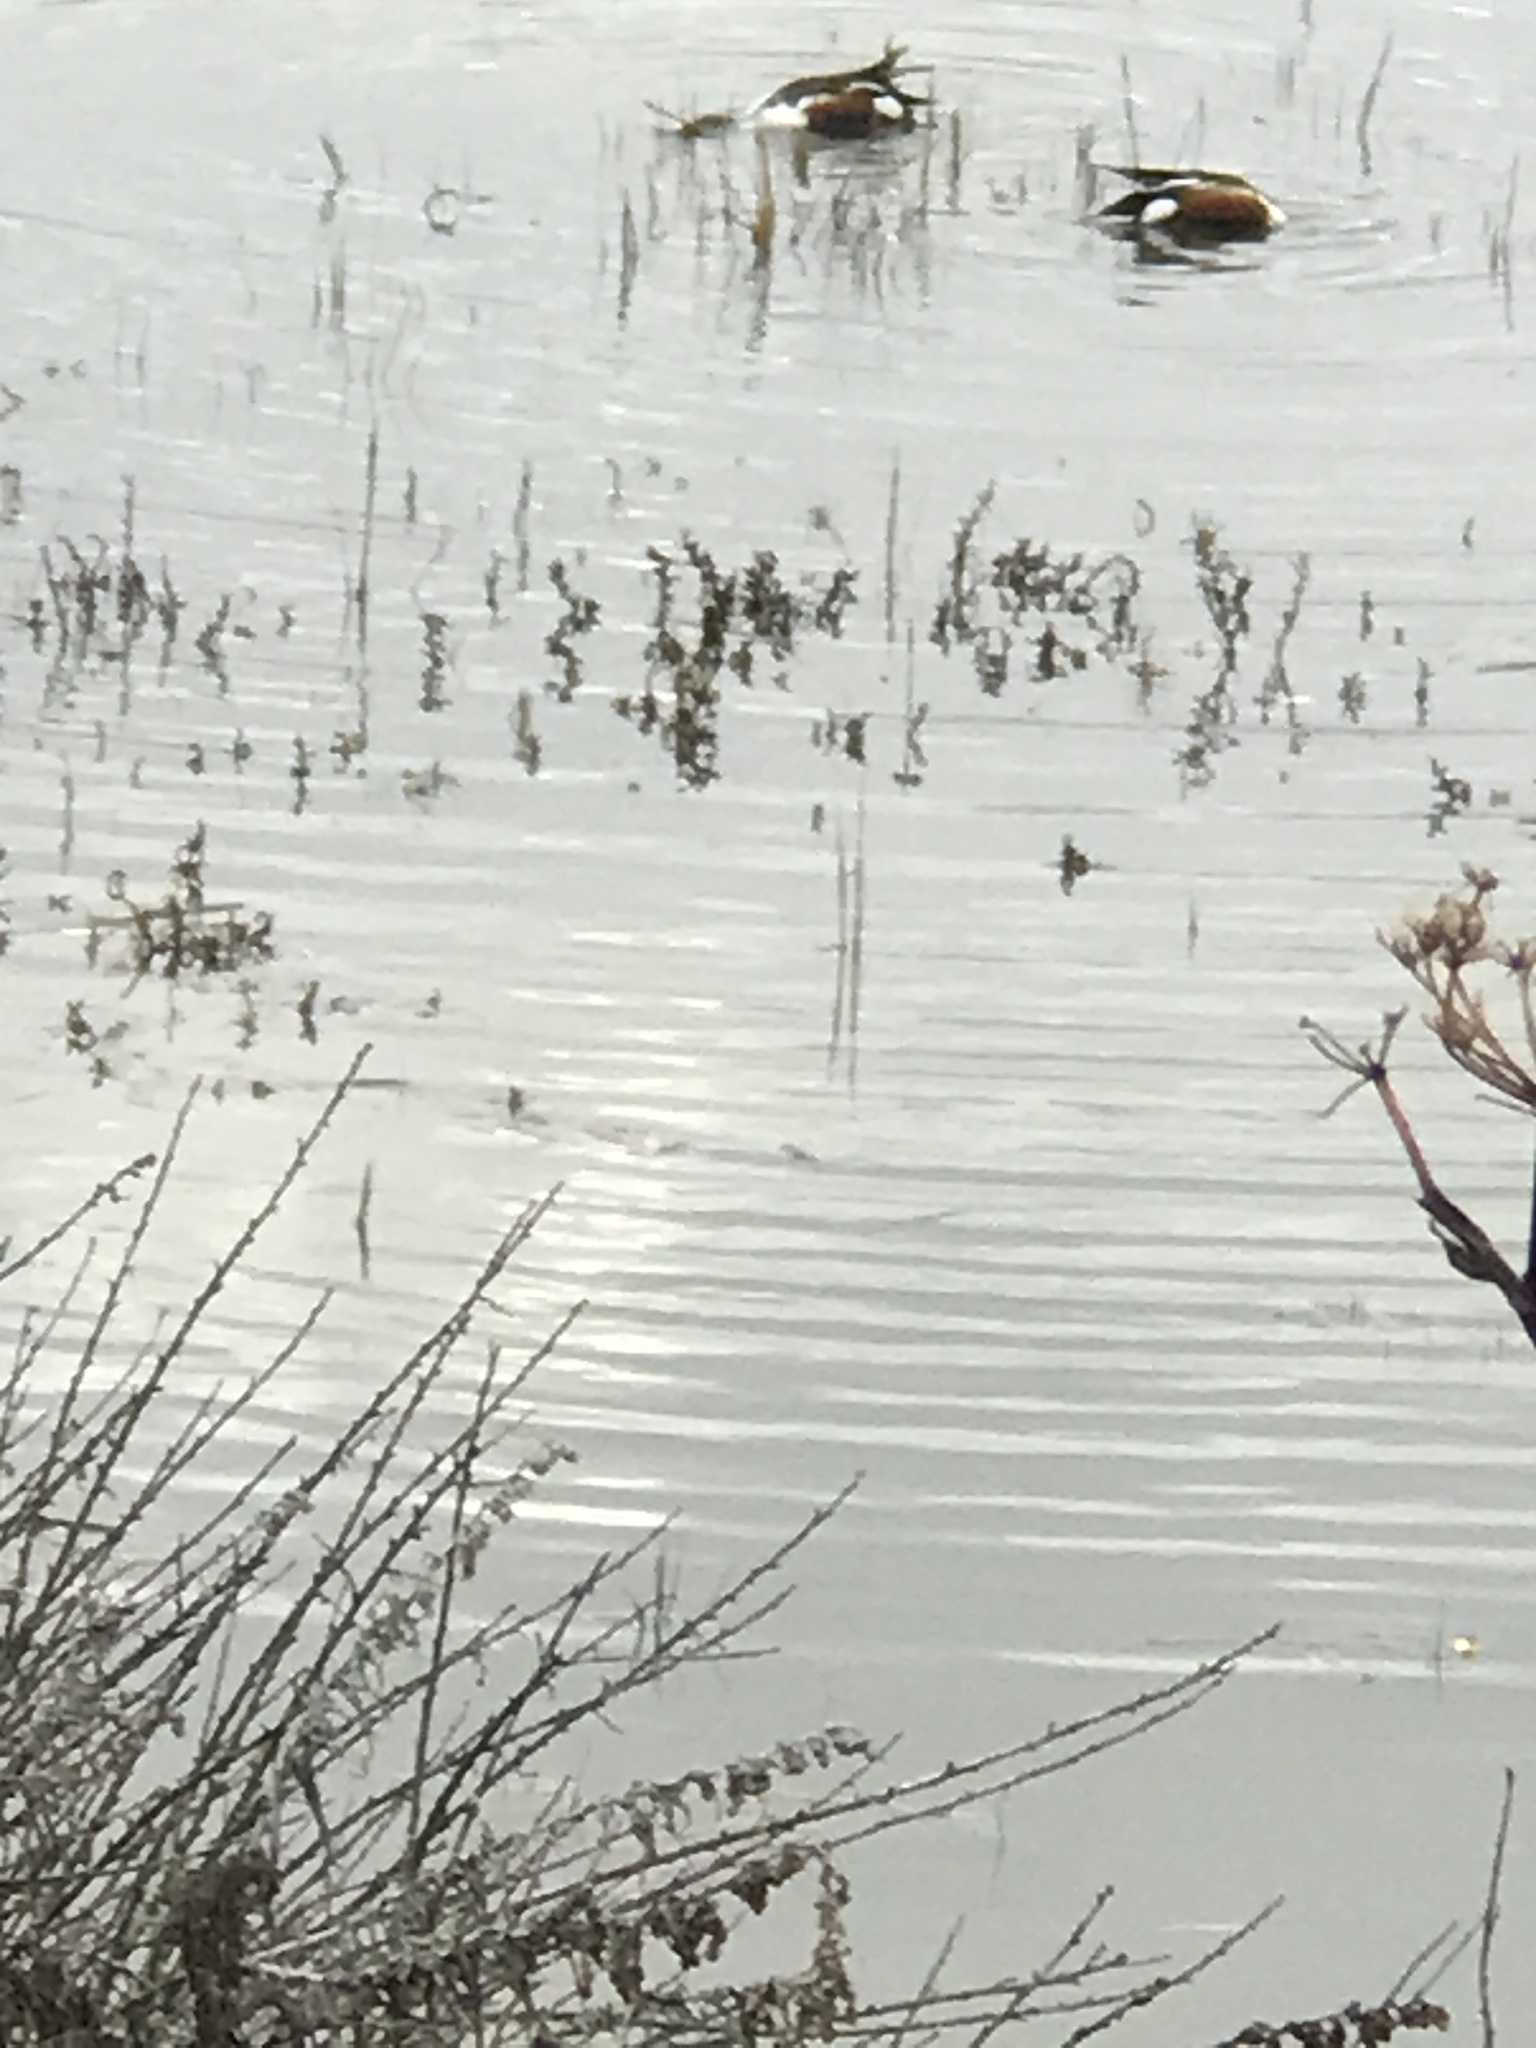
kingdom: Animalia
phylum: Chordata
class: Aves
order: Anseriformes
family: Anatidae
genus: Spatula
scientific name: Spatula clypeata
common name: Northern shoveler
